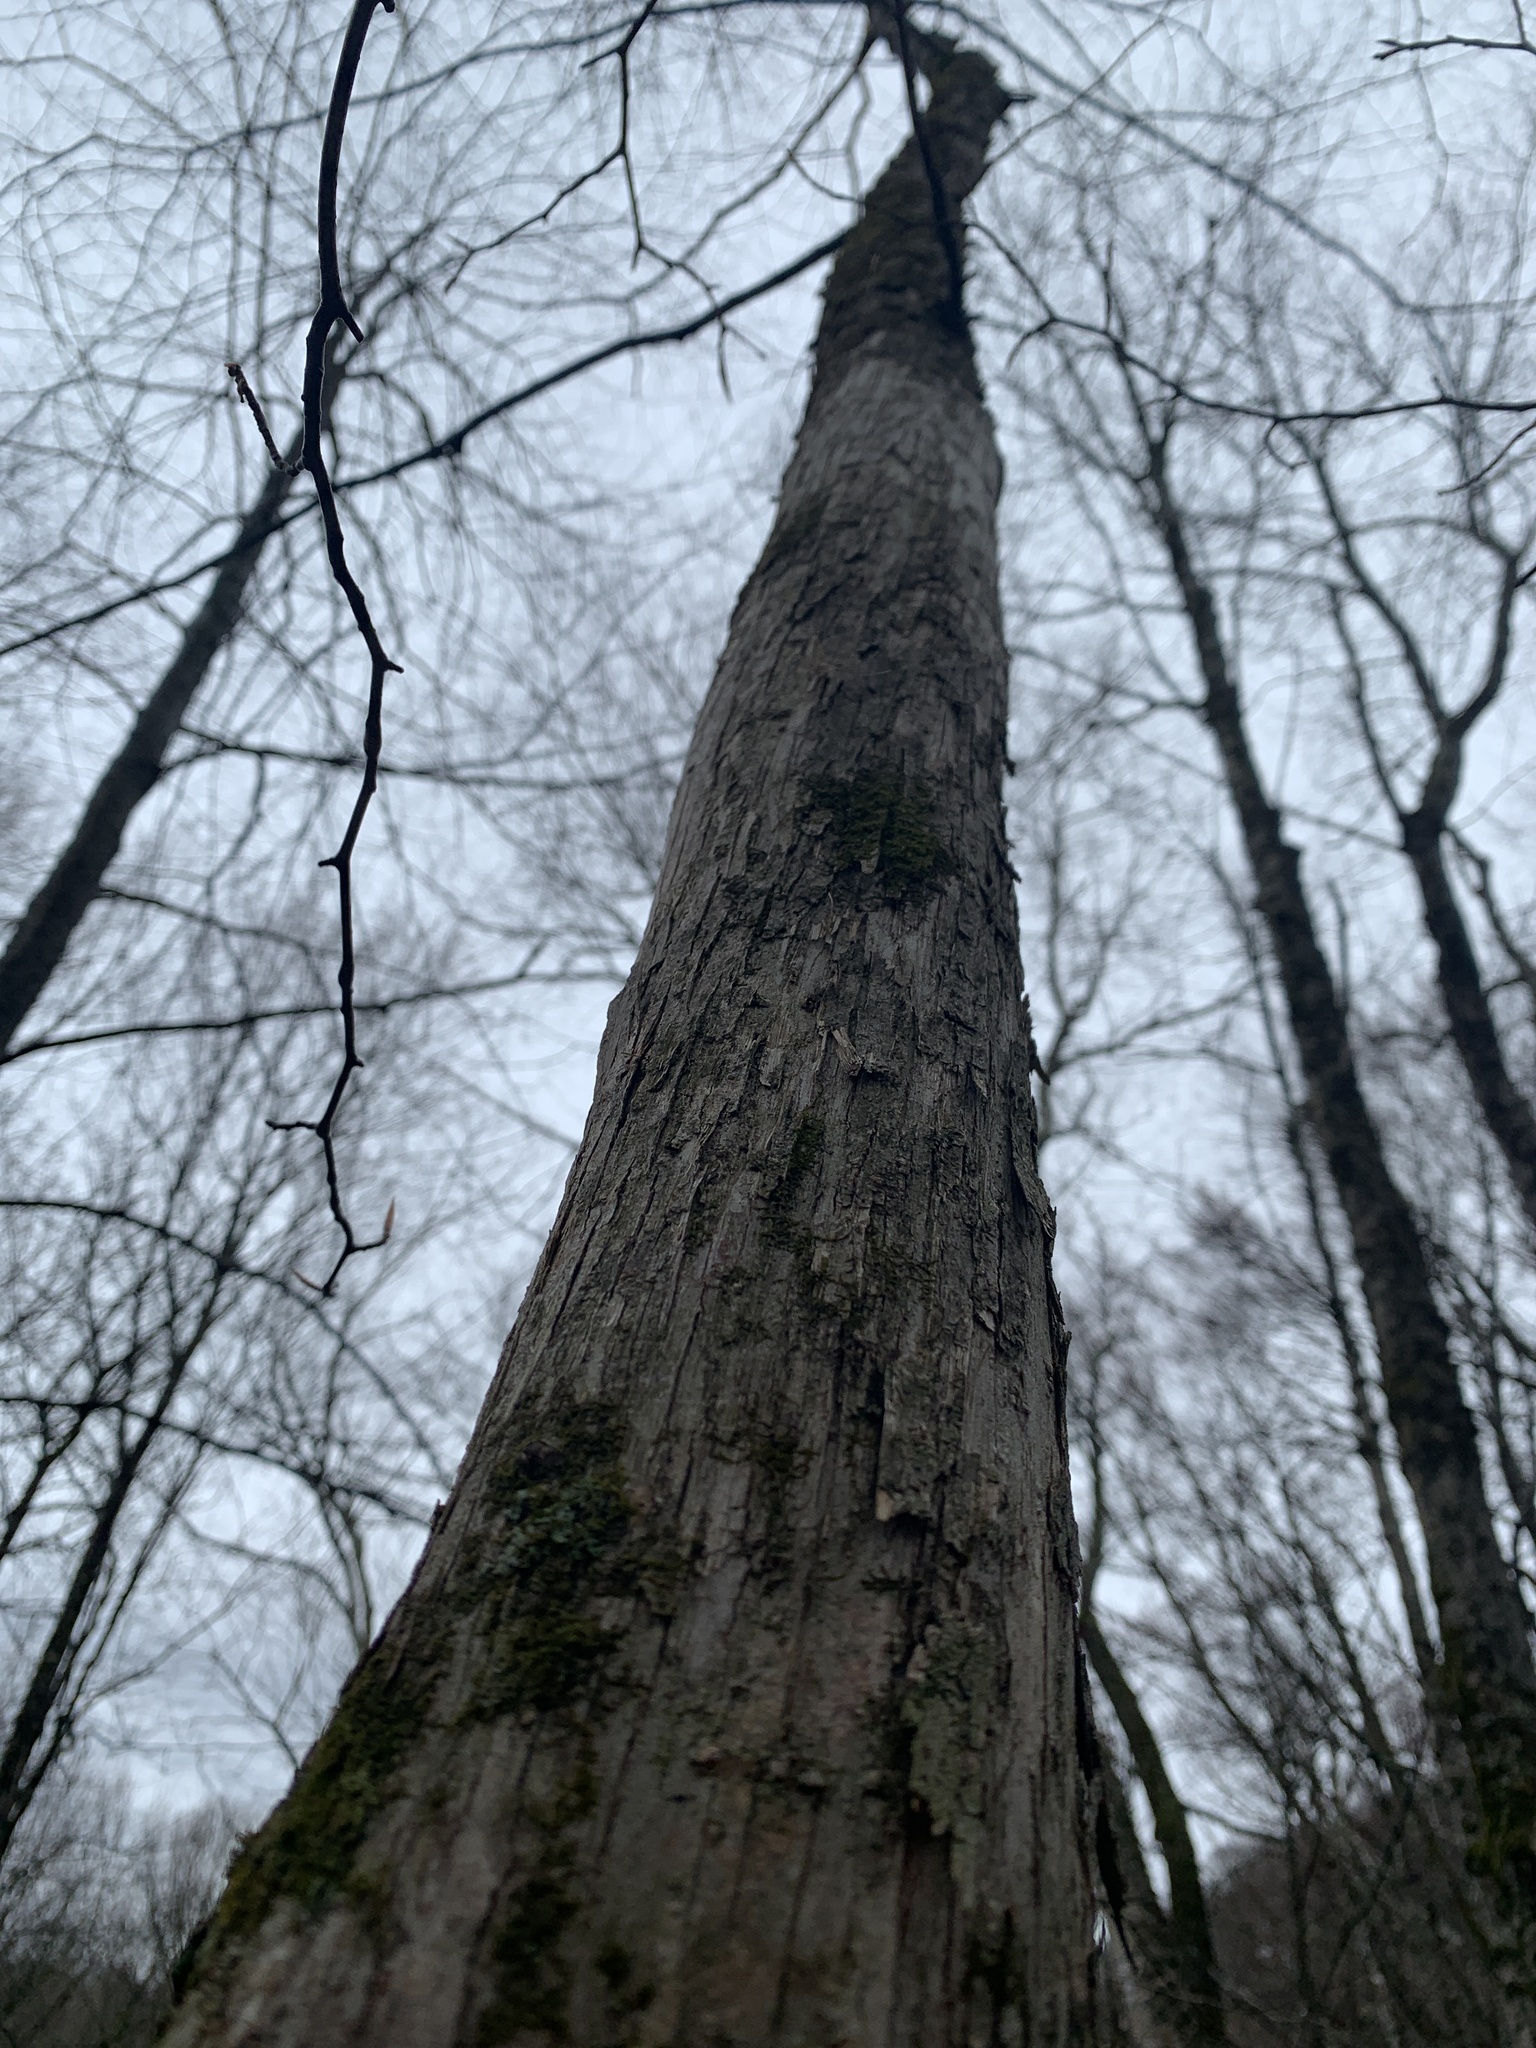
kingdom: Plantae
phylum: Tracheophyta
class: Magnoliopsida
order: Fagales
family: Betulaceae
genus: Ostrya
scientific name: Ostrya virginiana
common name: Ironwood
